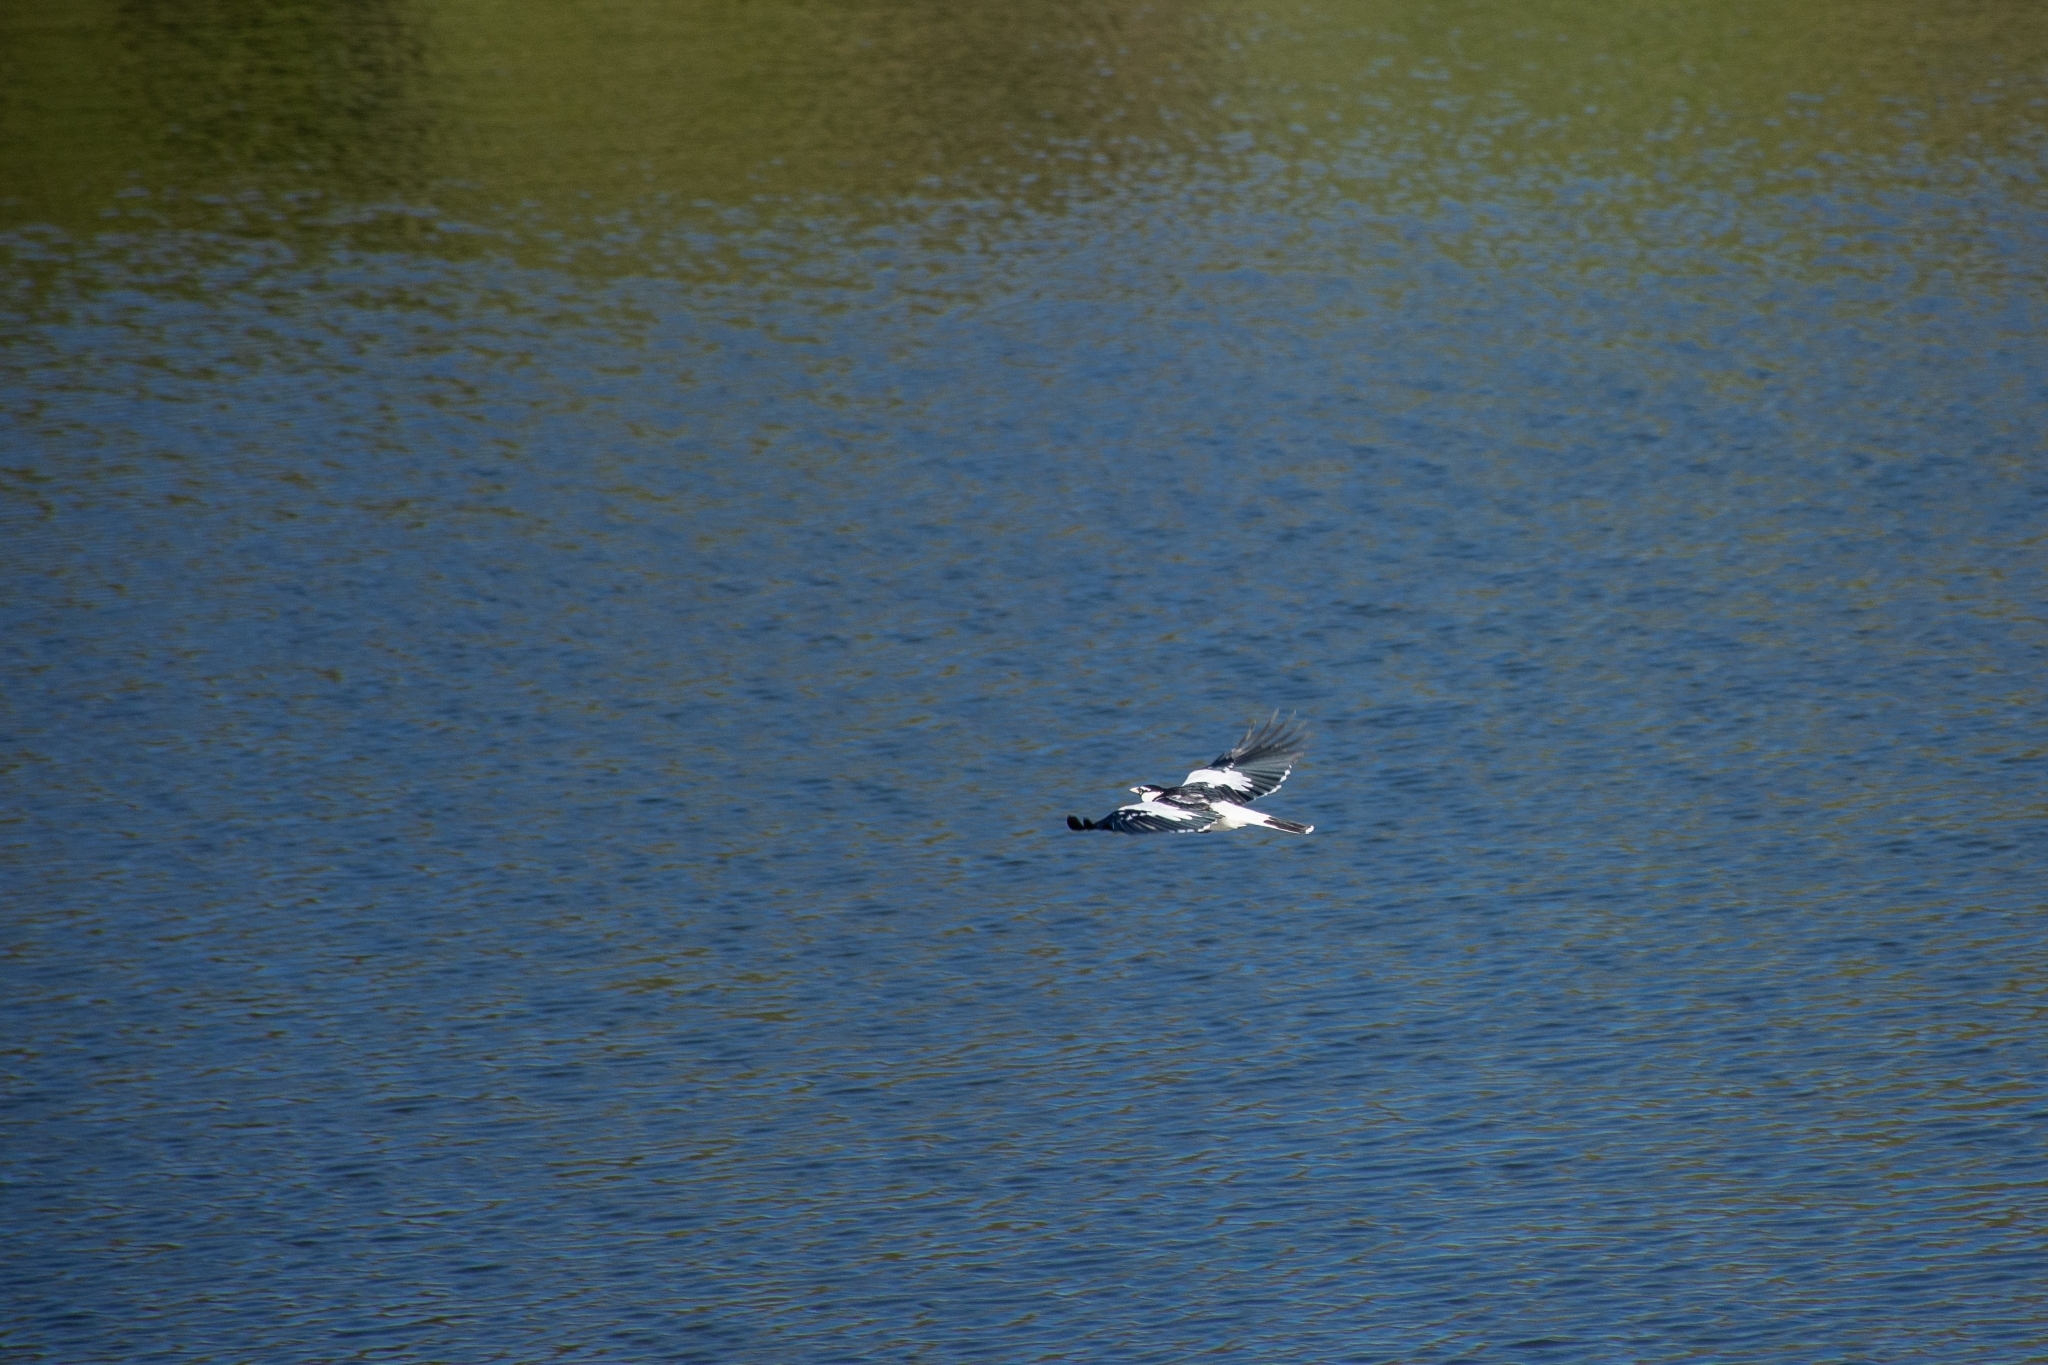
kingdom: Animalia
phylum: Chordata
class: Aves
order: Passeriformes
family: Monarchidae
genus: Grallina
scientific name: Grallina cyanoleuca
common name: Magpie-lark
